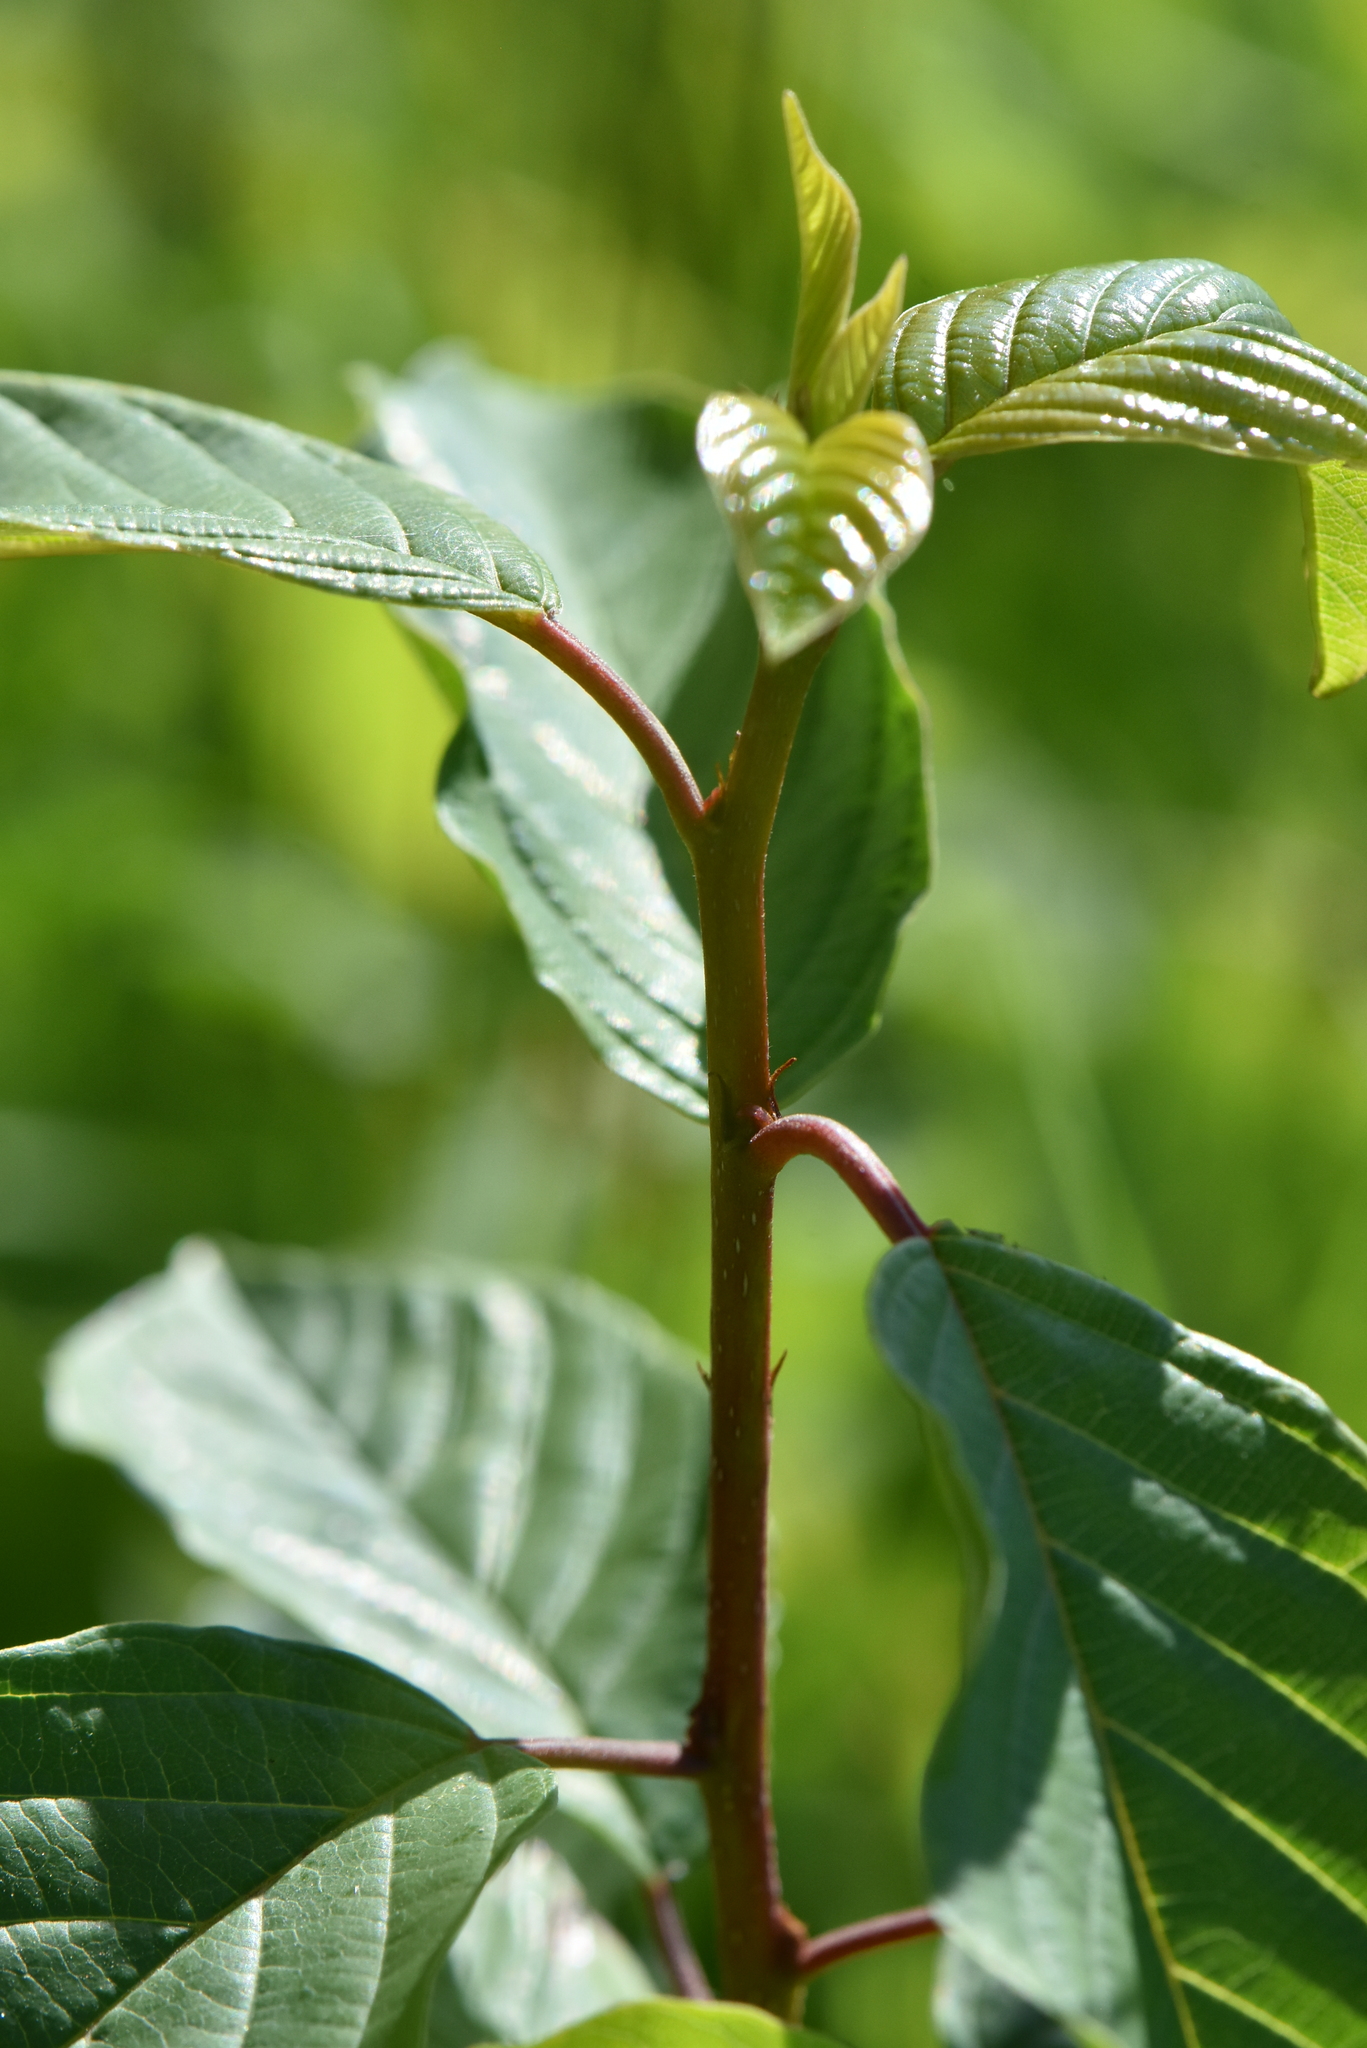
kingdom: Plantae
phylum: Tracheophyta
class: Magnoliopsida
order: Rosales
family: Rhamnaceae
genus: Frangula
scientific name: Frangula alnus
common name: Alder buckthorn
